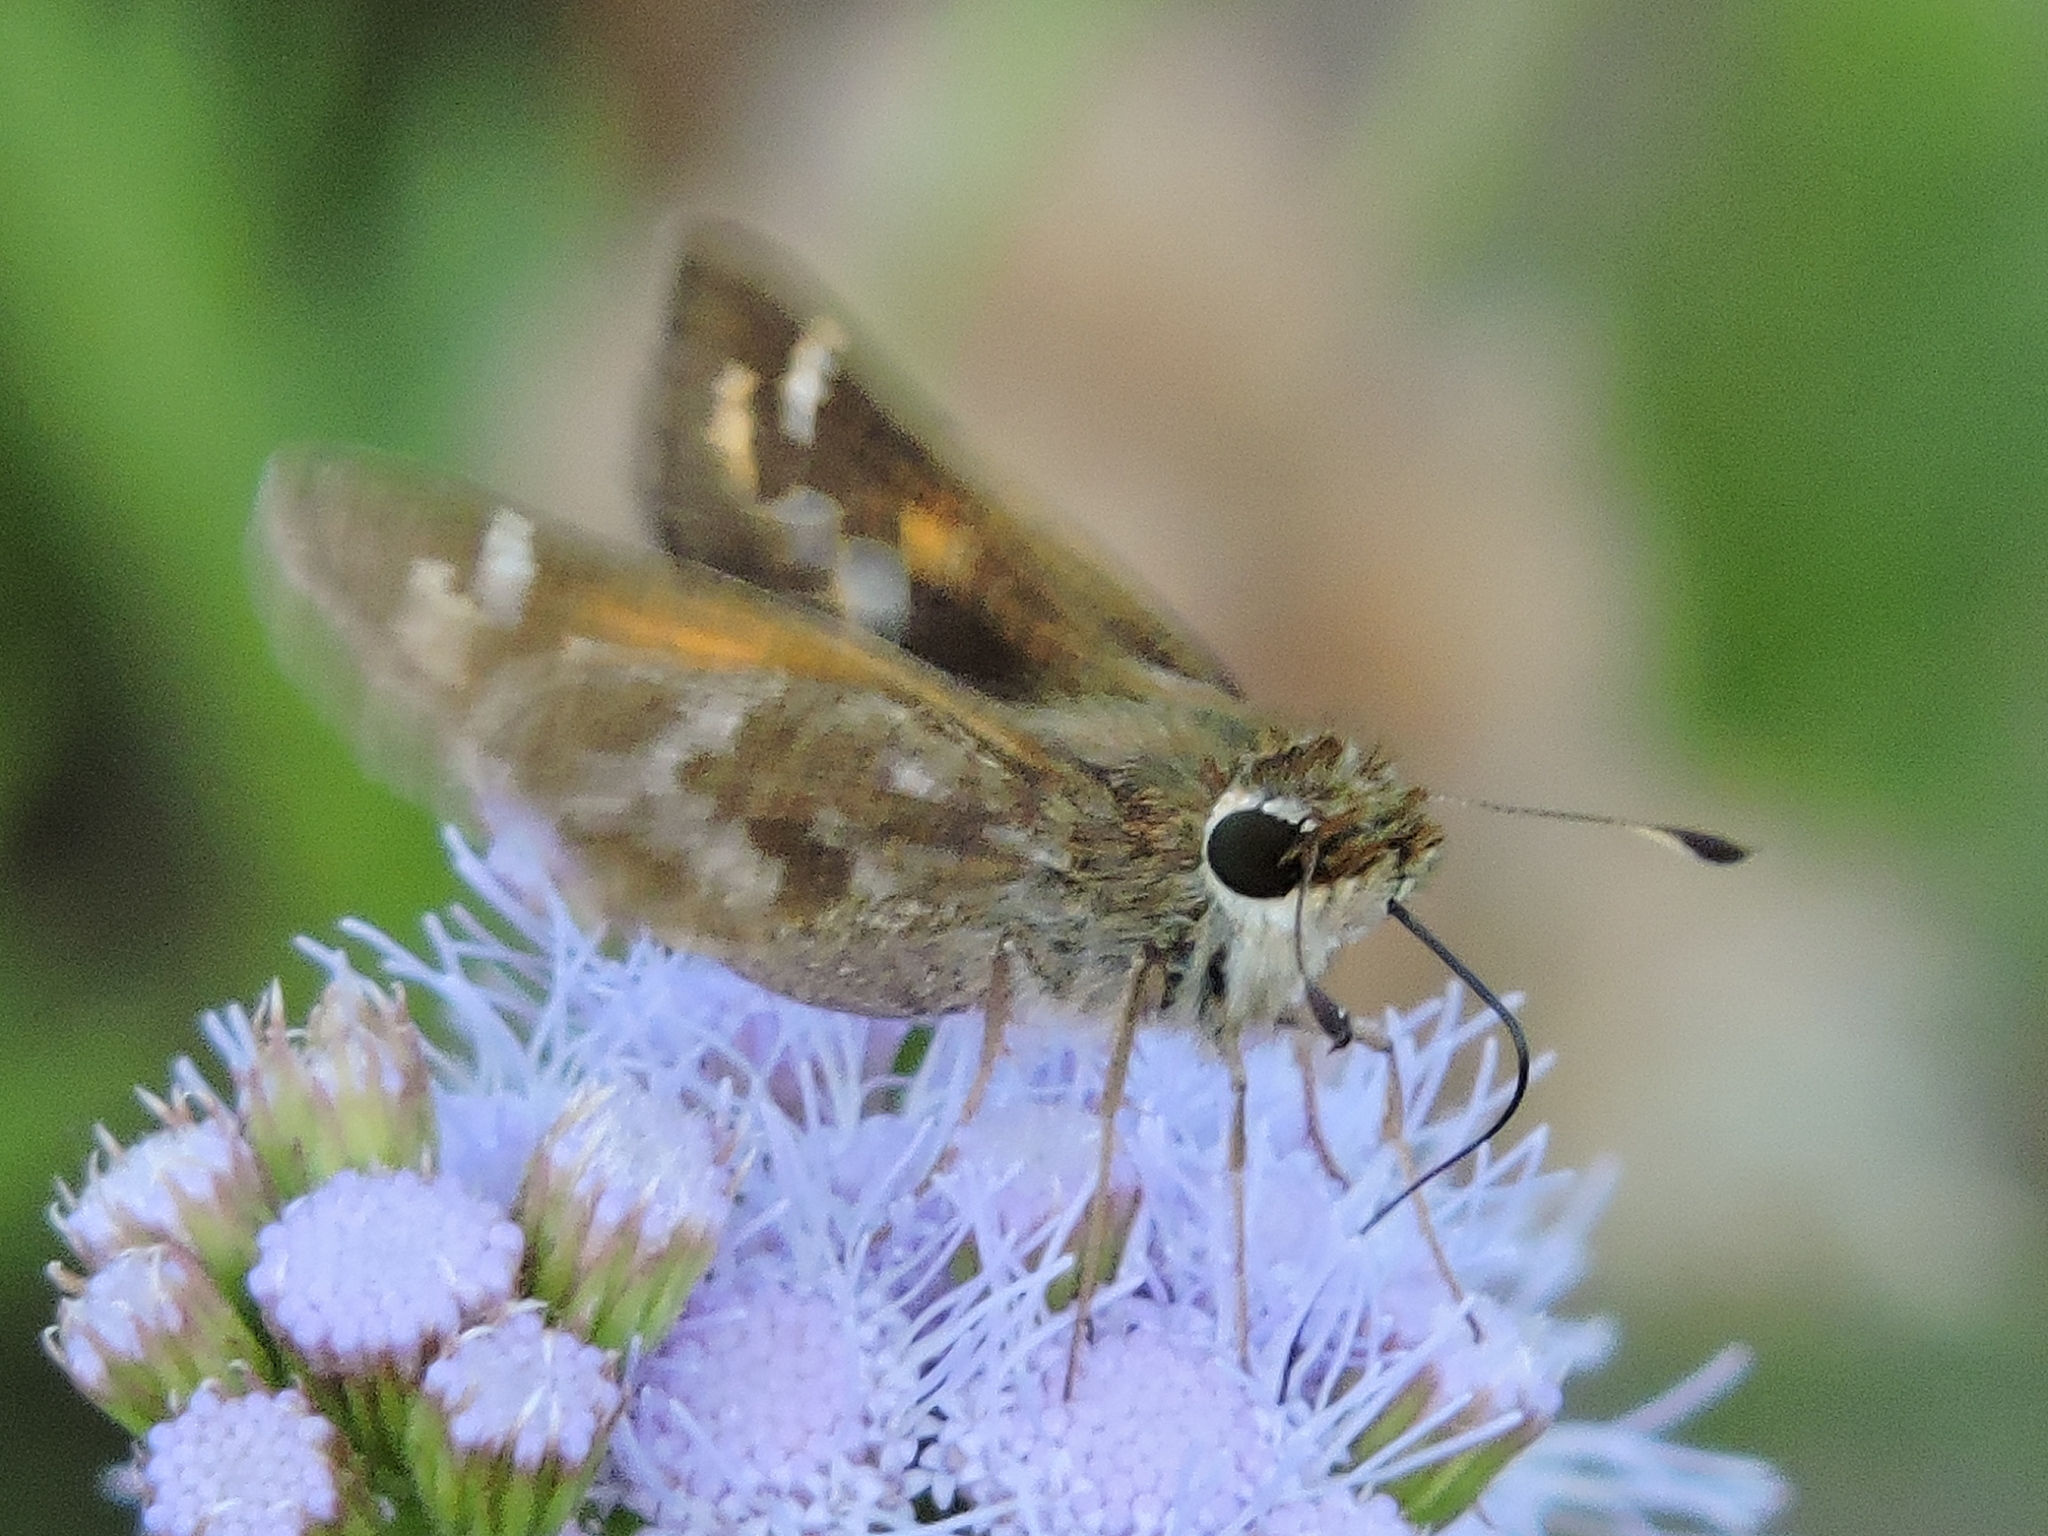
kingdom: Animalia
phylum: Arthropoda
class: Insecta
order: Lepidoptera
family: Hesperiidae
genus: Atalopedes
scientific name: Atalopedes
